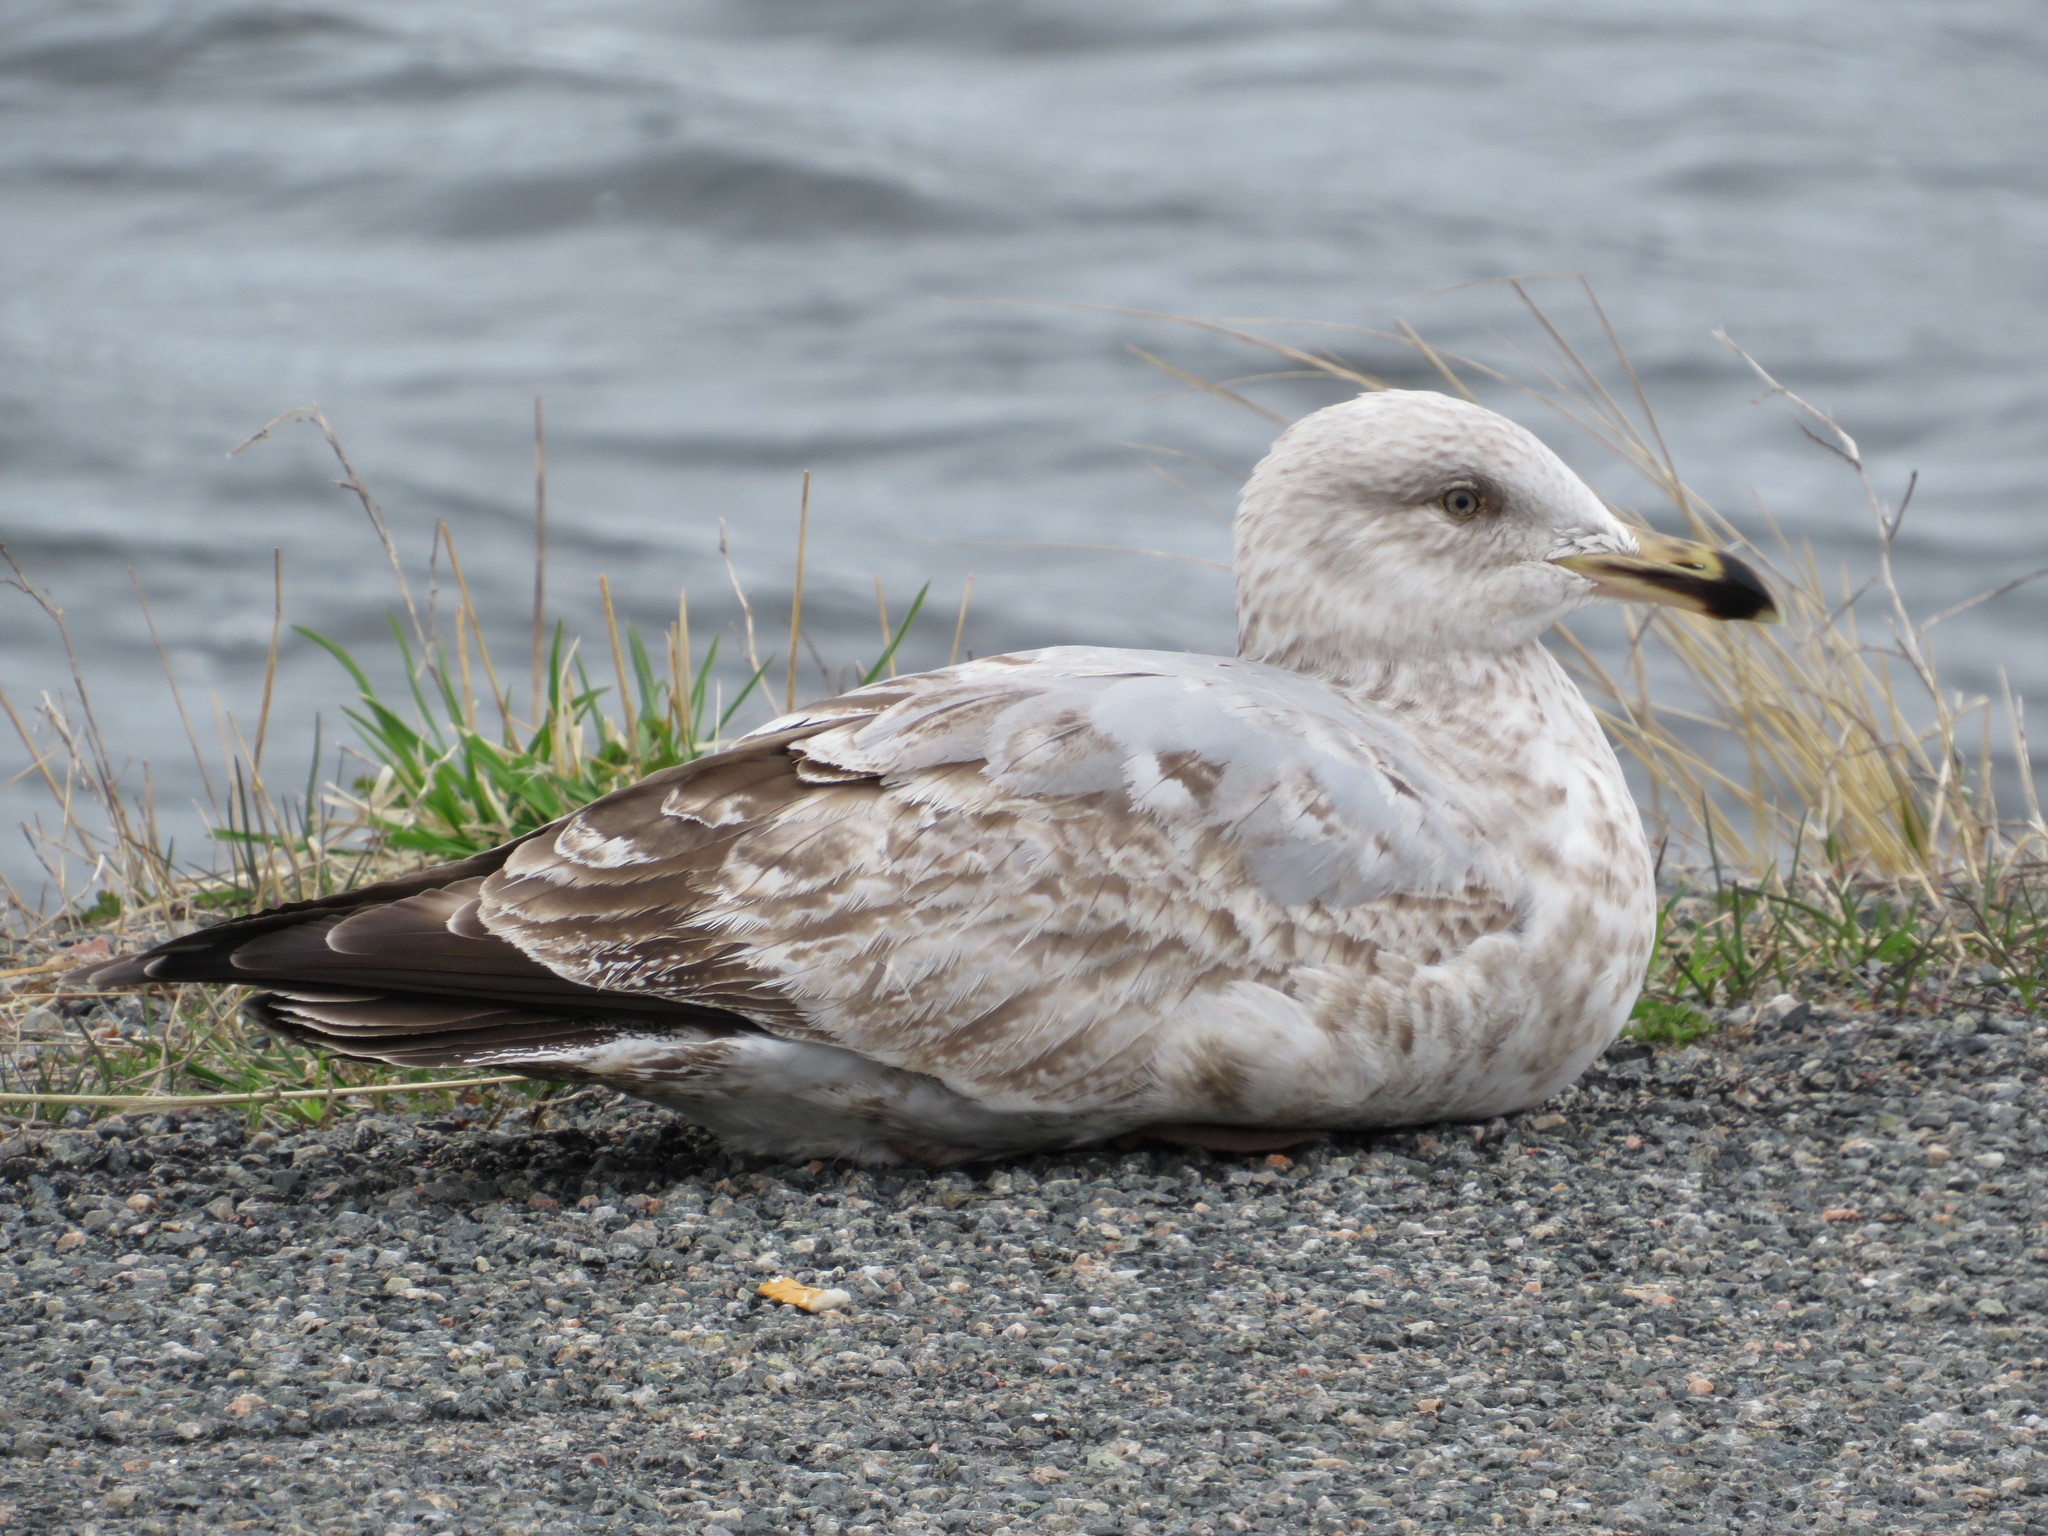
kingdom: Animalia
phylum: Chordata
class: Aves
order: Charadriiformes
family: Laridae
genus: Larus
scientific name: Larus argentatus
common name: Herring gull
